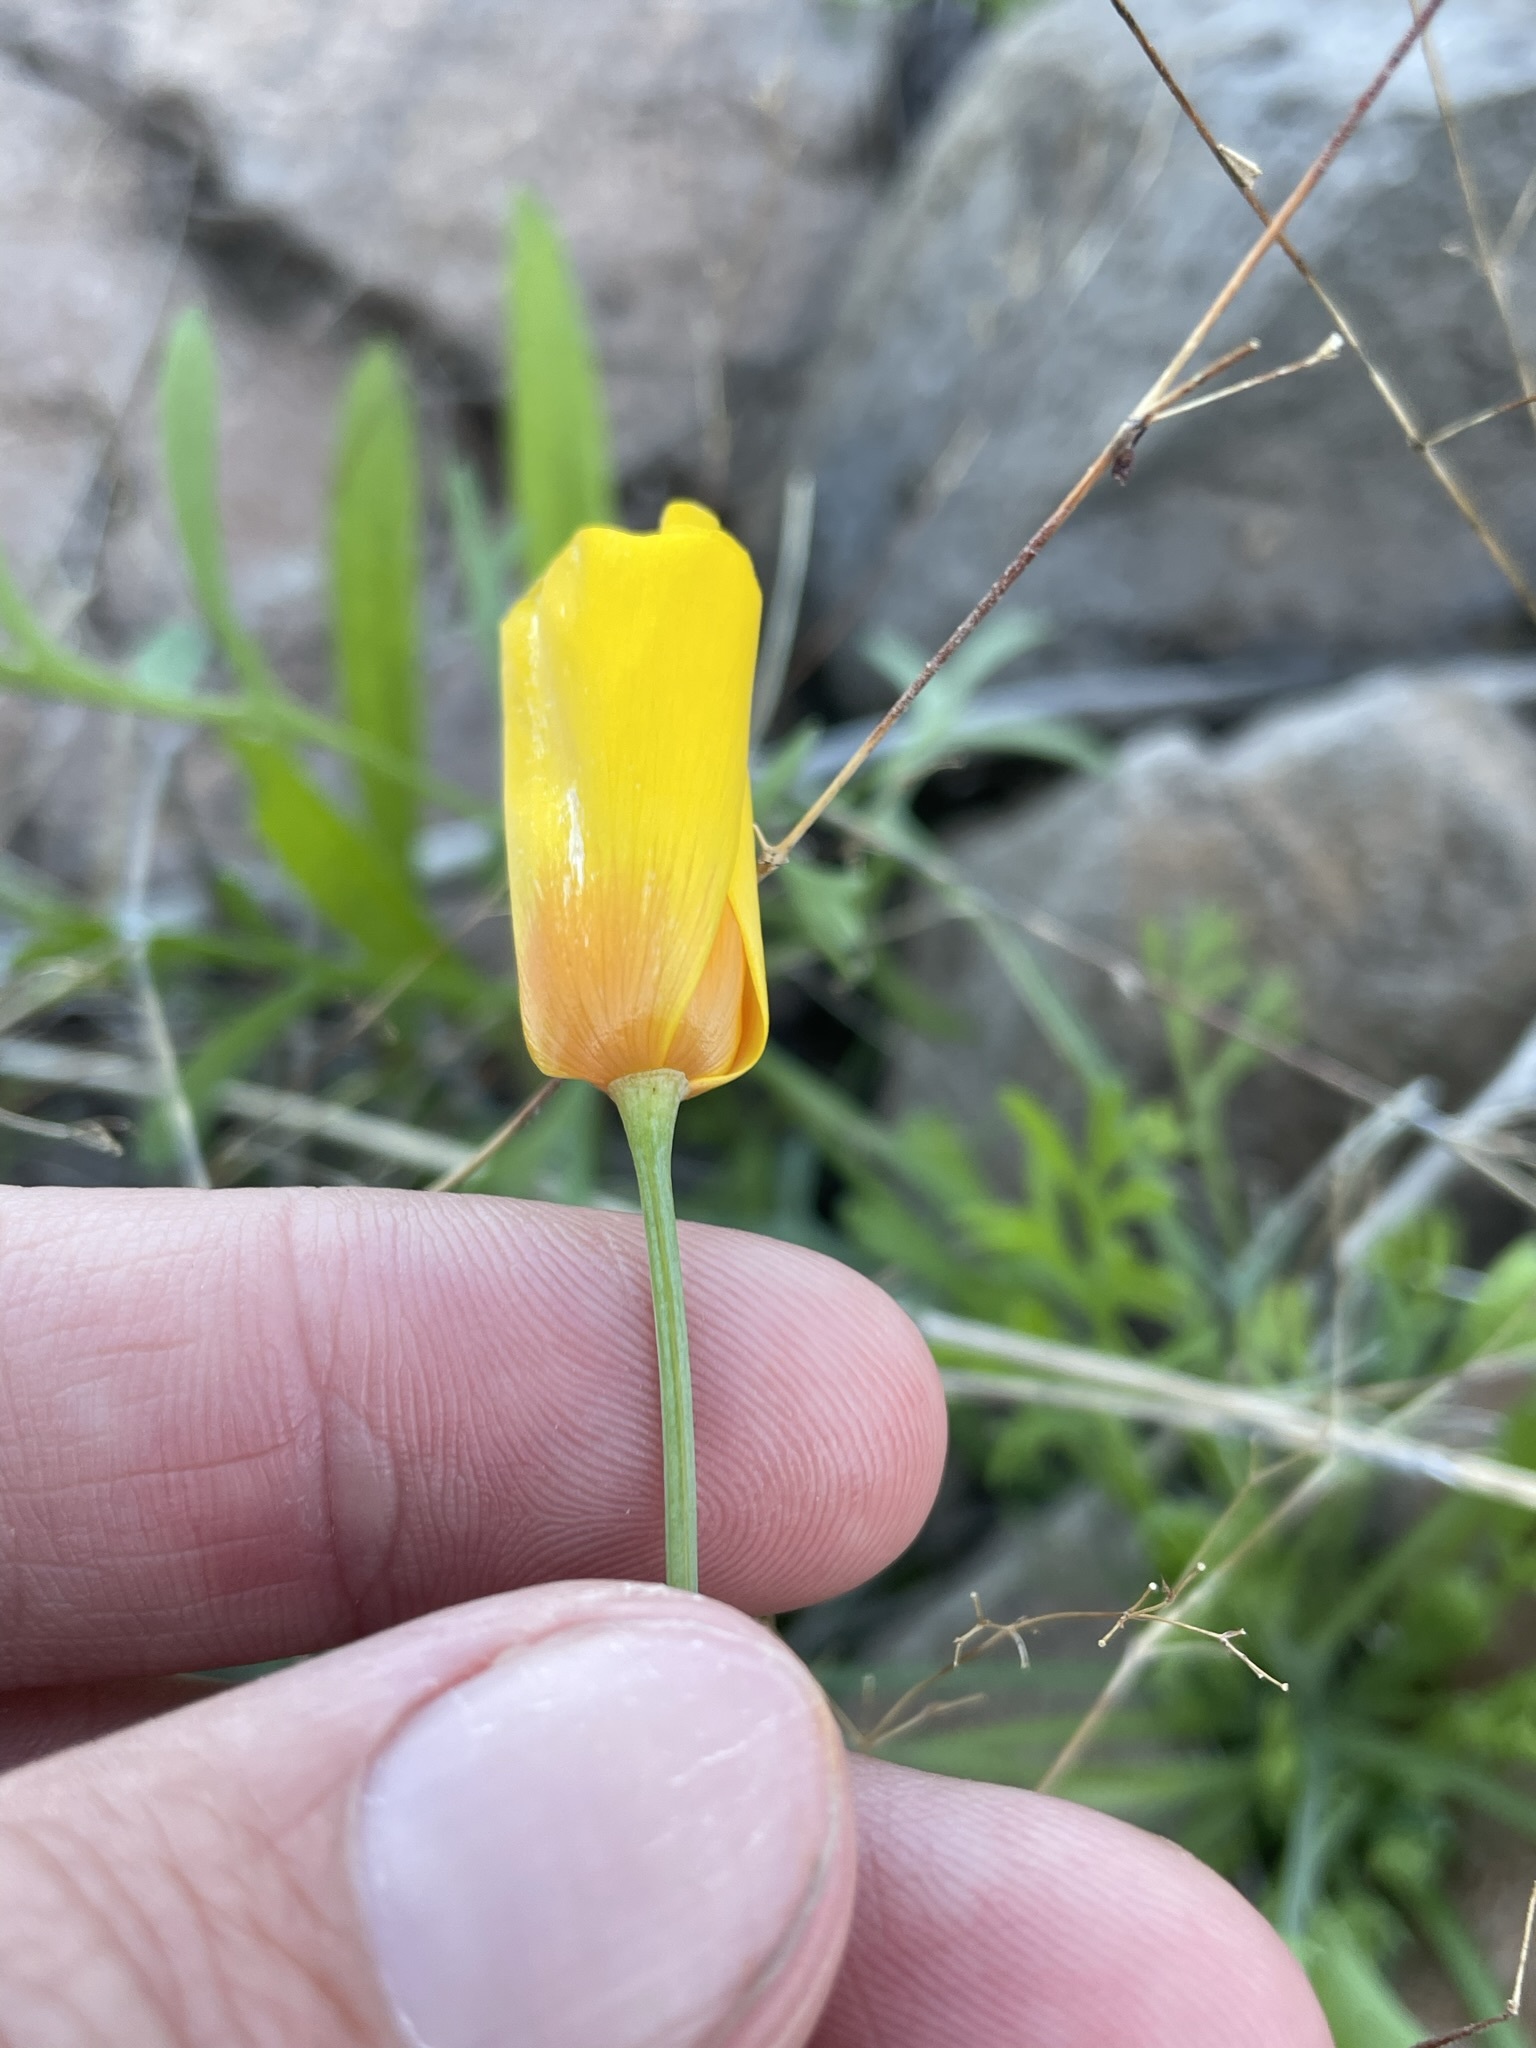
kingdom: Plantae
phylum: Tracheophyta
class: Magnoliopsida
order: Ranunculales
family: Papaveraceae
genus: Eschscholzia
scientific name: Eschscholzia californica
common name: California poppy
